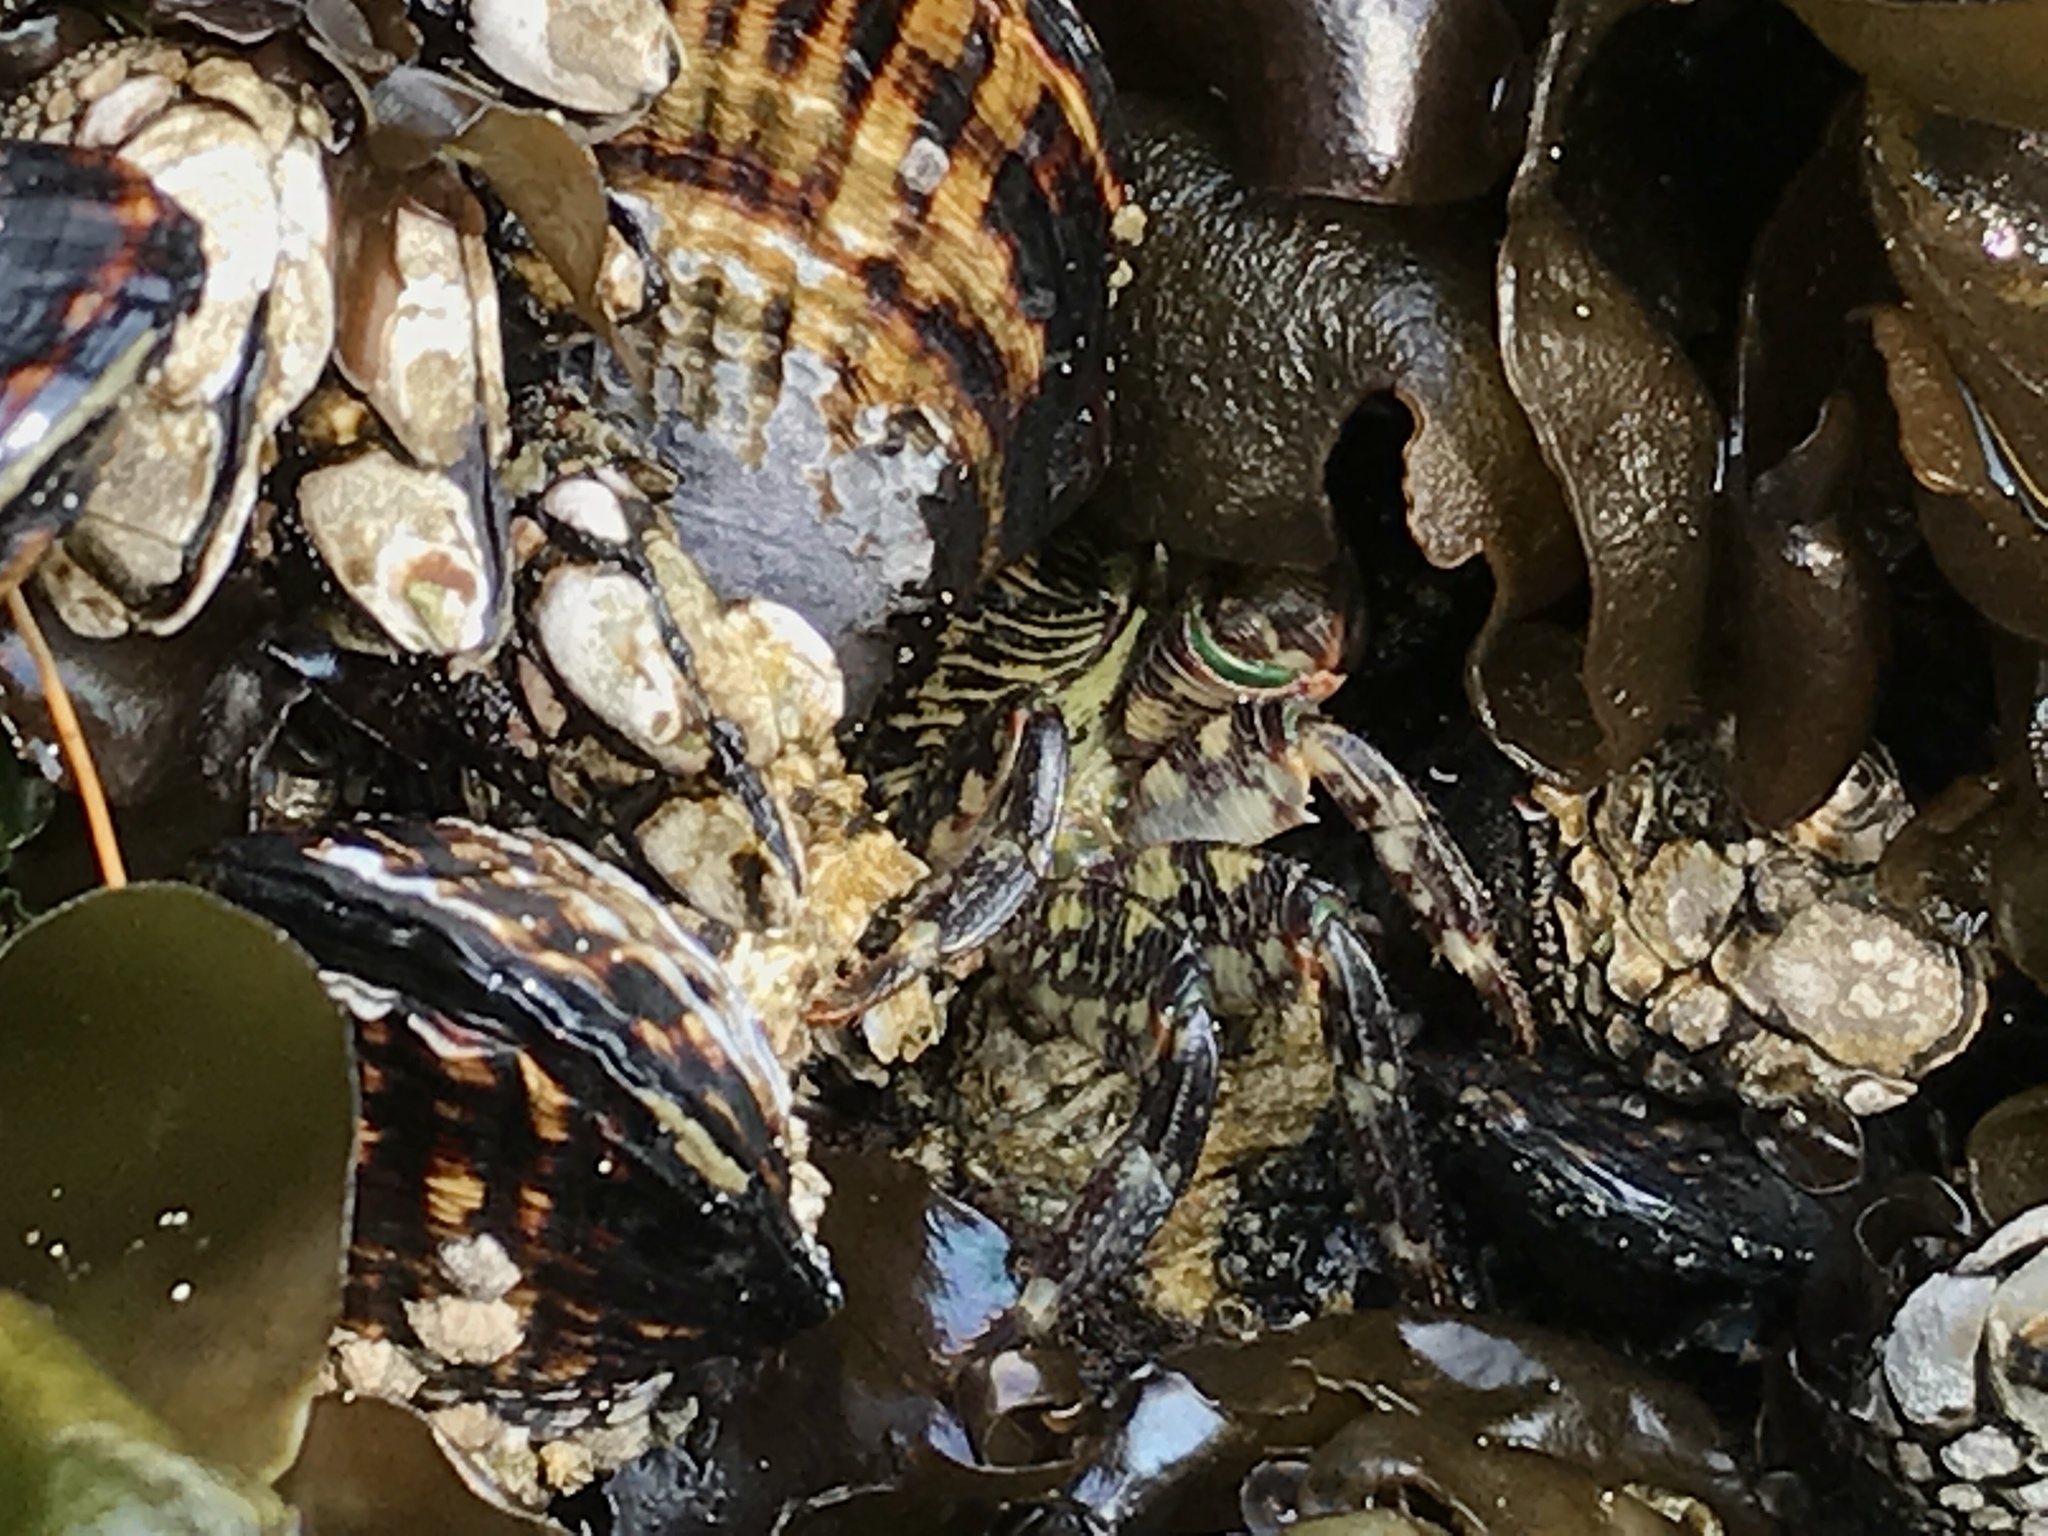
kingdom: Animalia
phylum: Arthropoda
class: Malacostraca
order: Decapoda
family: Grapsidae
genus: Pachygrapsus
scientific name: Pachygrapsus crassipes
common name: Striped shore crab
